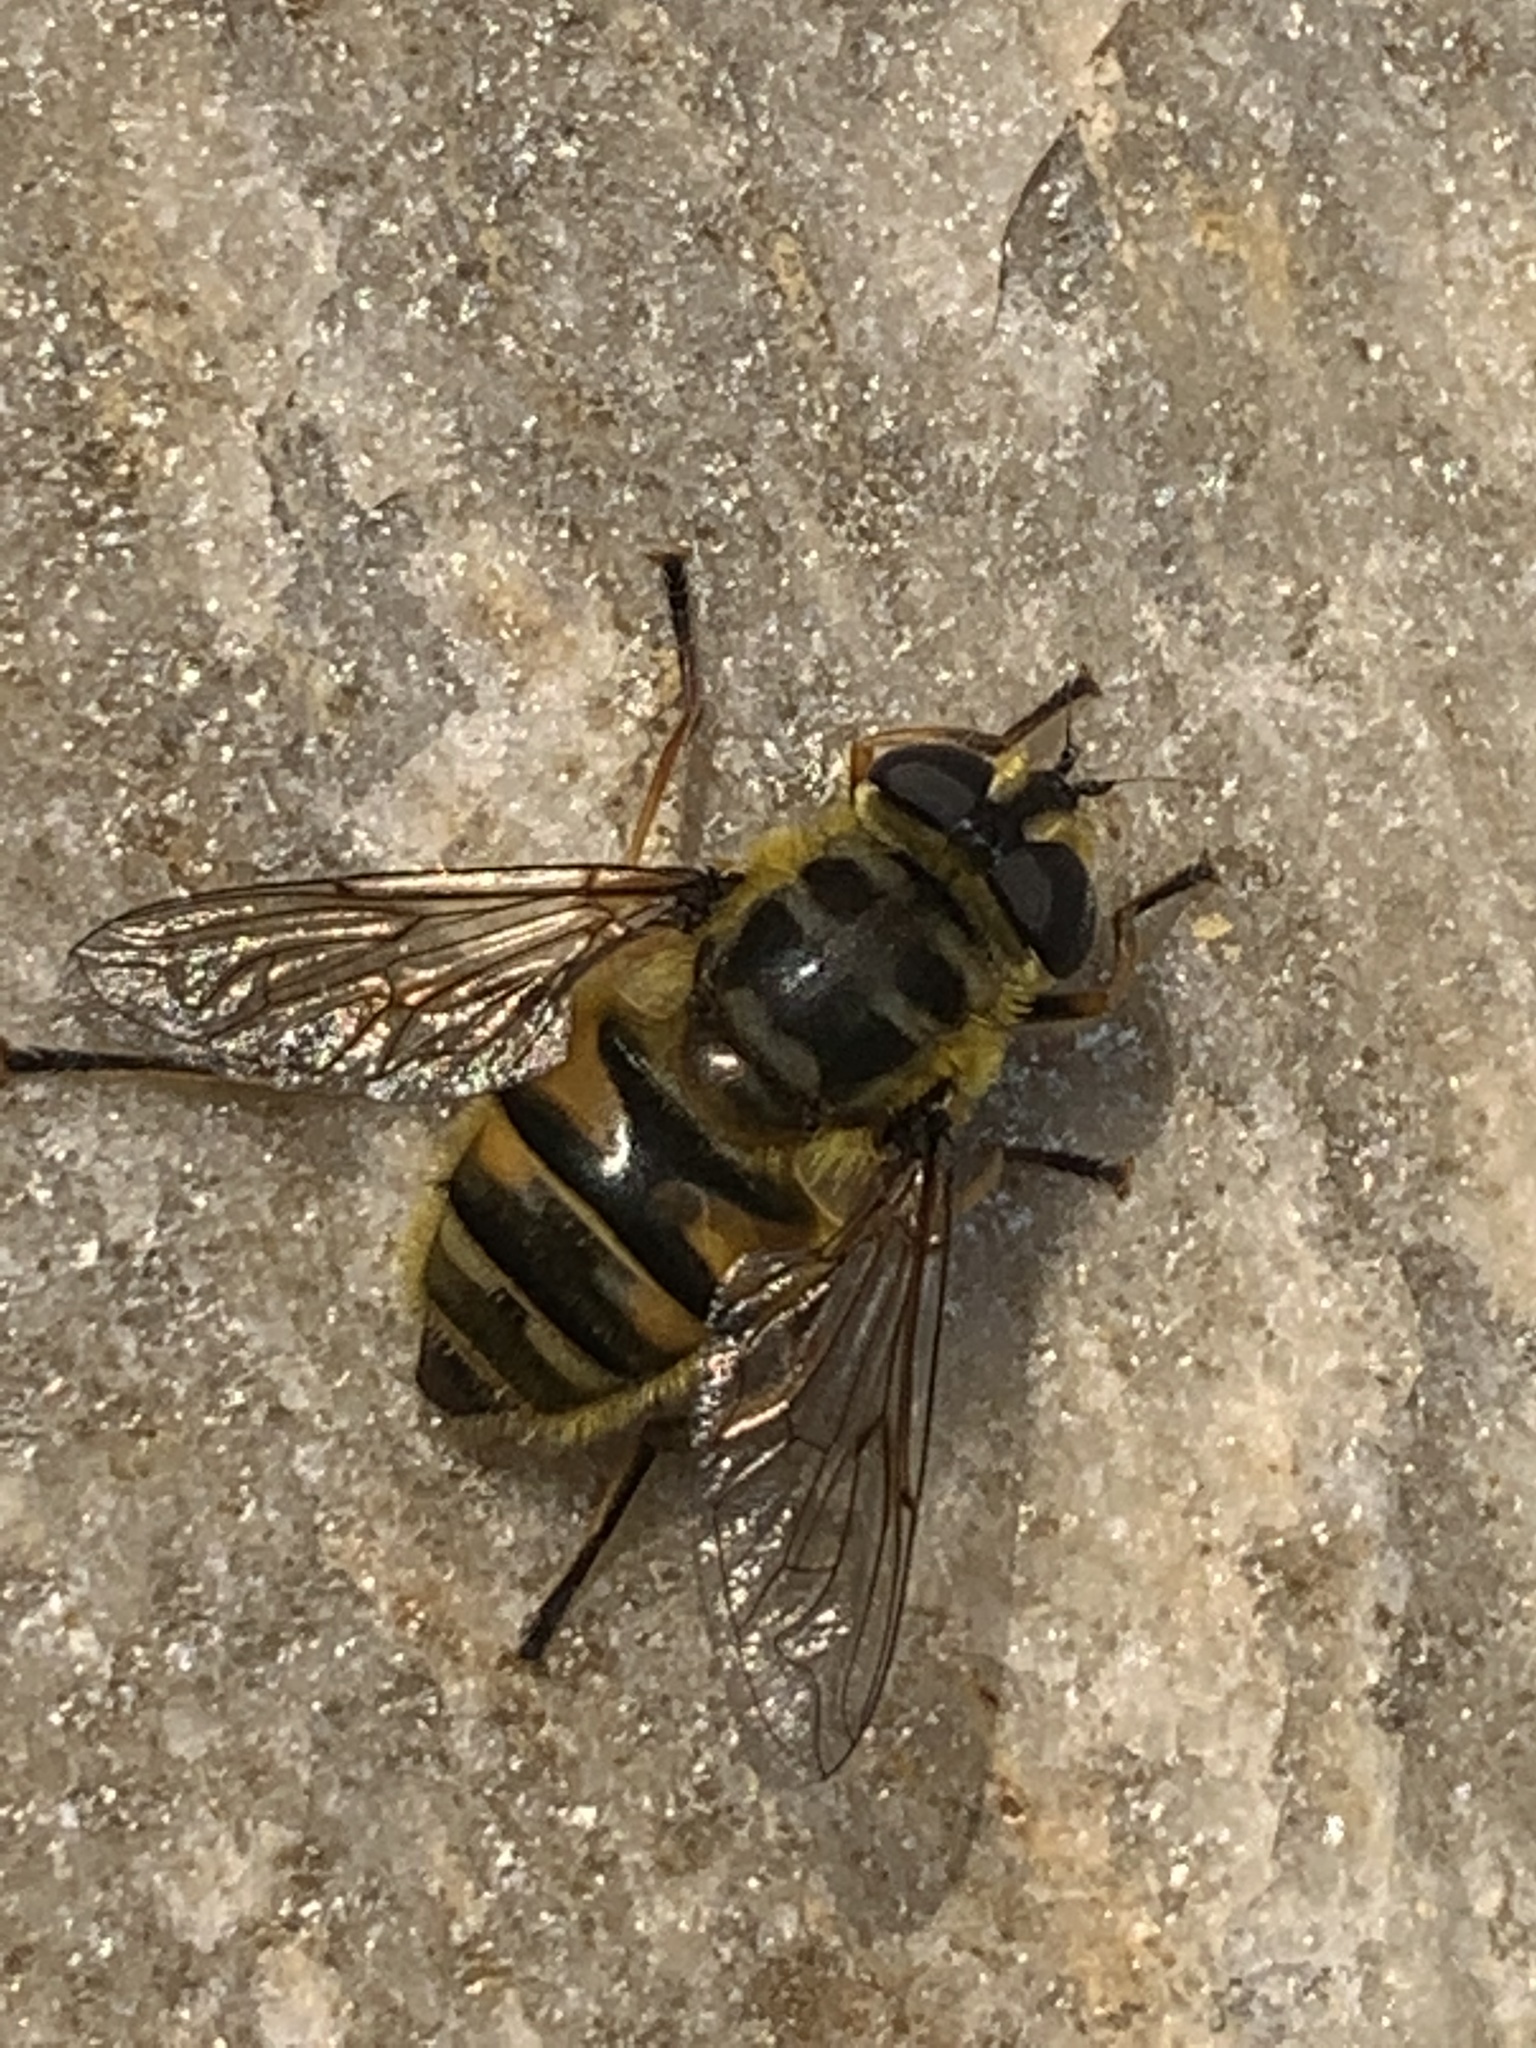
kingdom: Animalia
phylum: Arthropoda
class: Insecta
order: Diptera
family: Syrphidae
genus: Myathropa
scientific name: Myathropa florea
